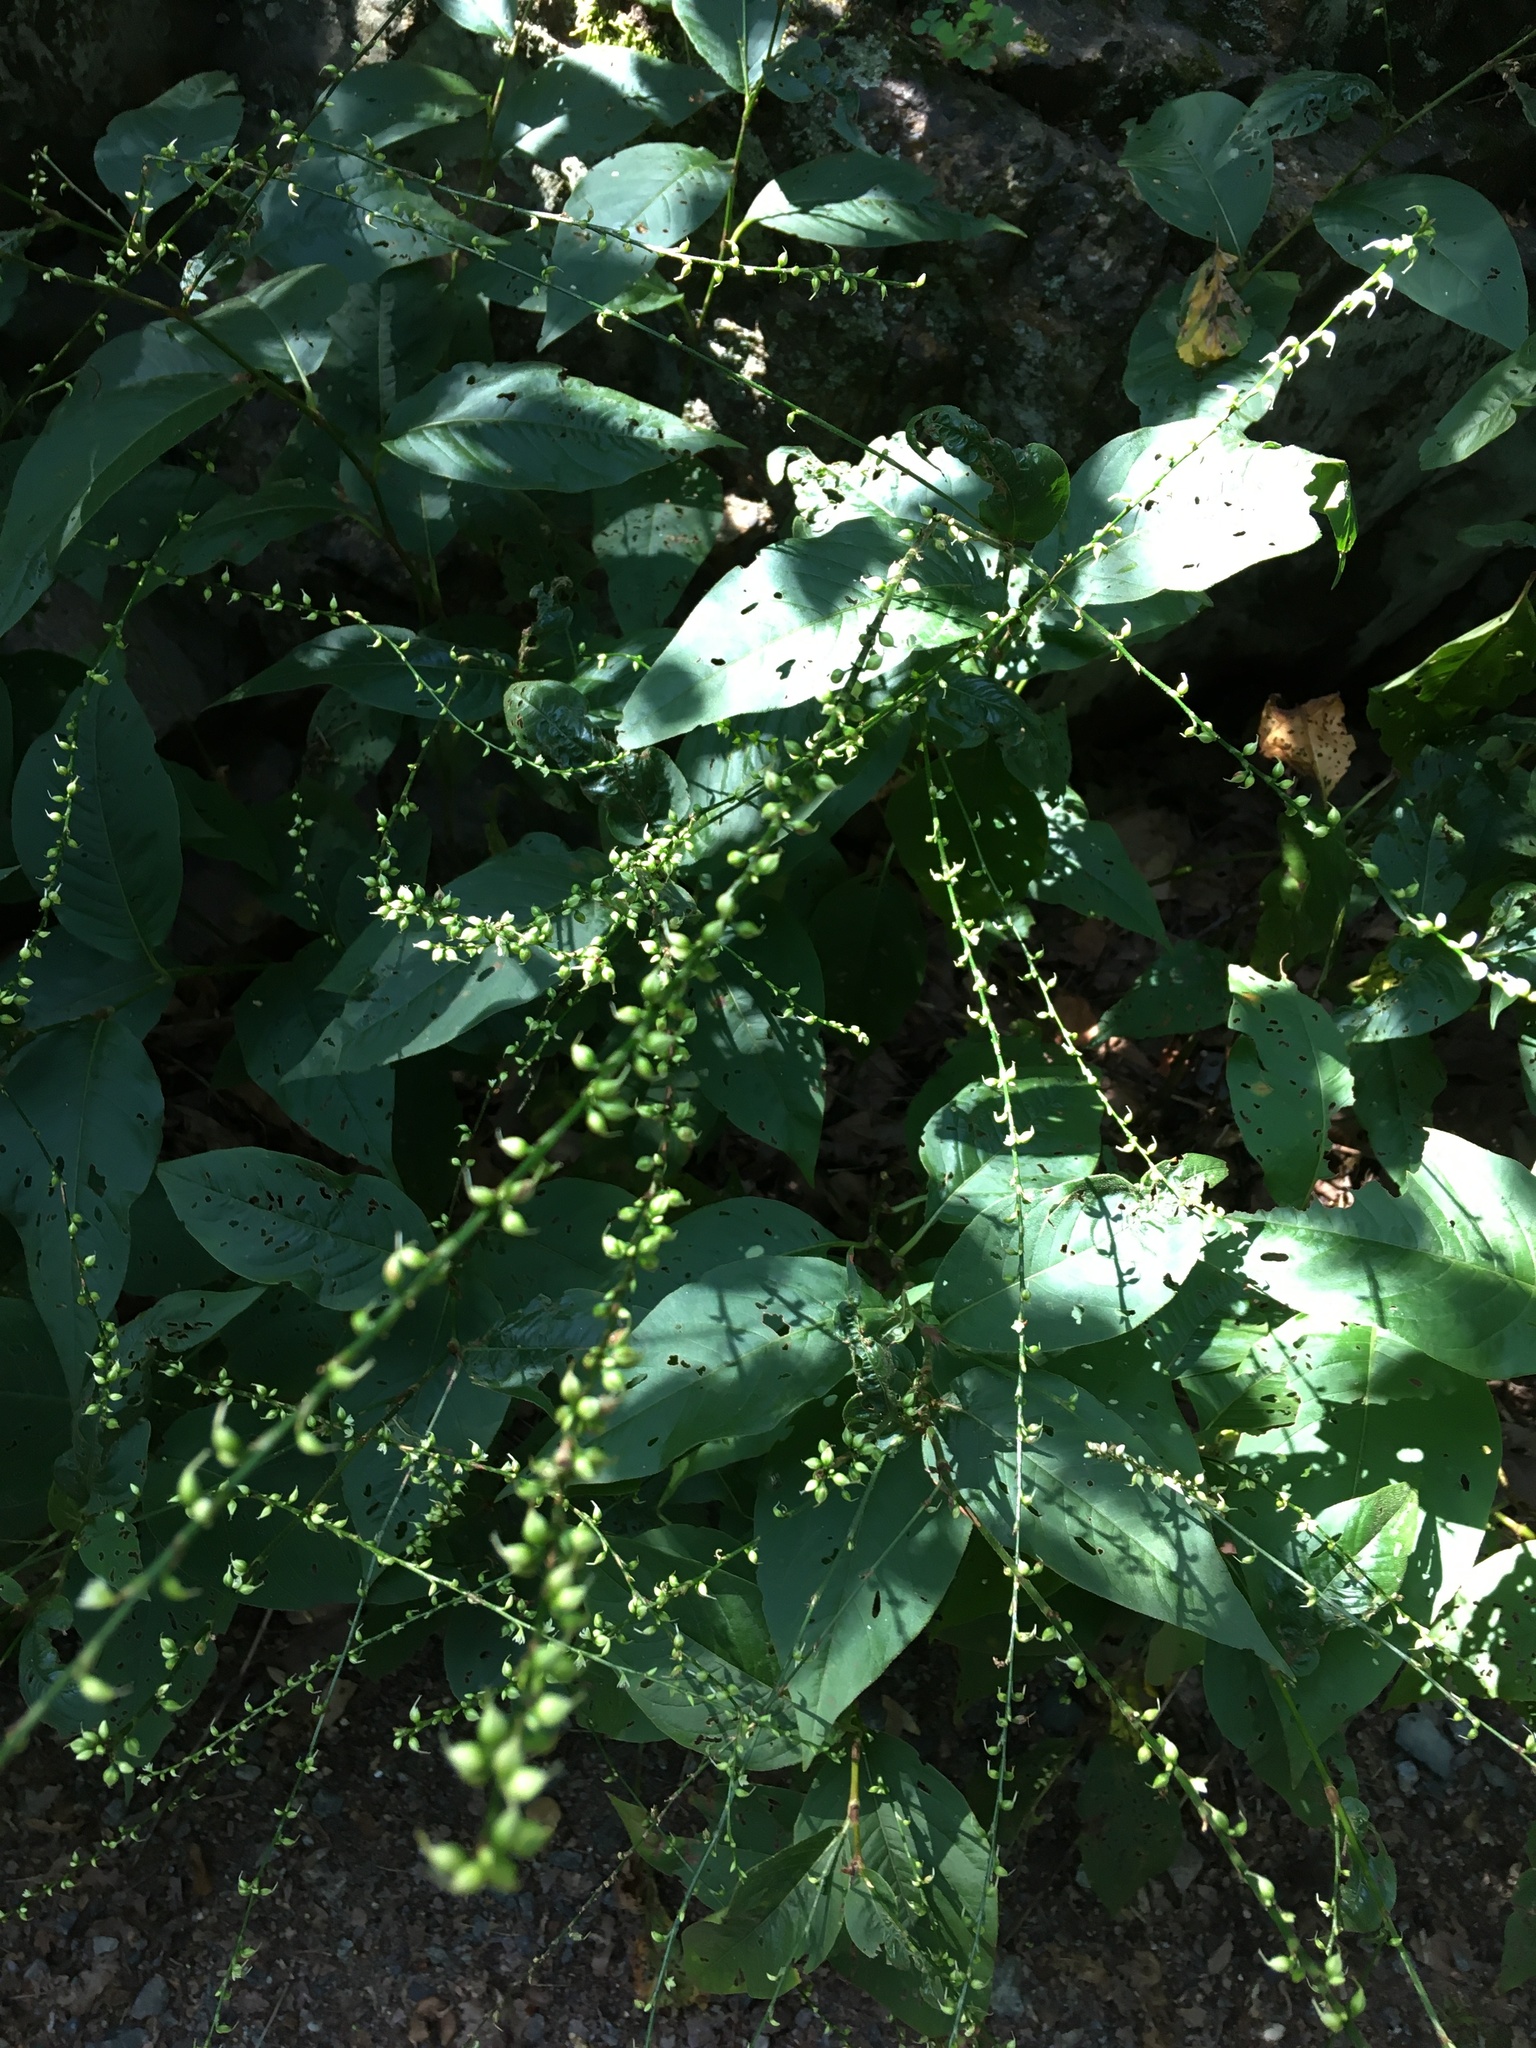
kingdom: Plantae
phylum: Tracheophyta
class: Magnoliopsida
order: Caryophyllales
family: Polygonaceae
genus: Persicaria
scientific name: Persicaria virginiana
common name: Jumpseed
